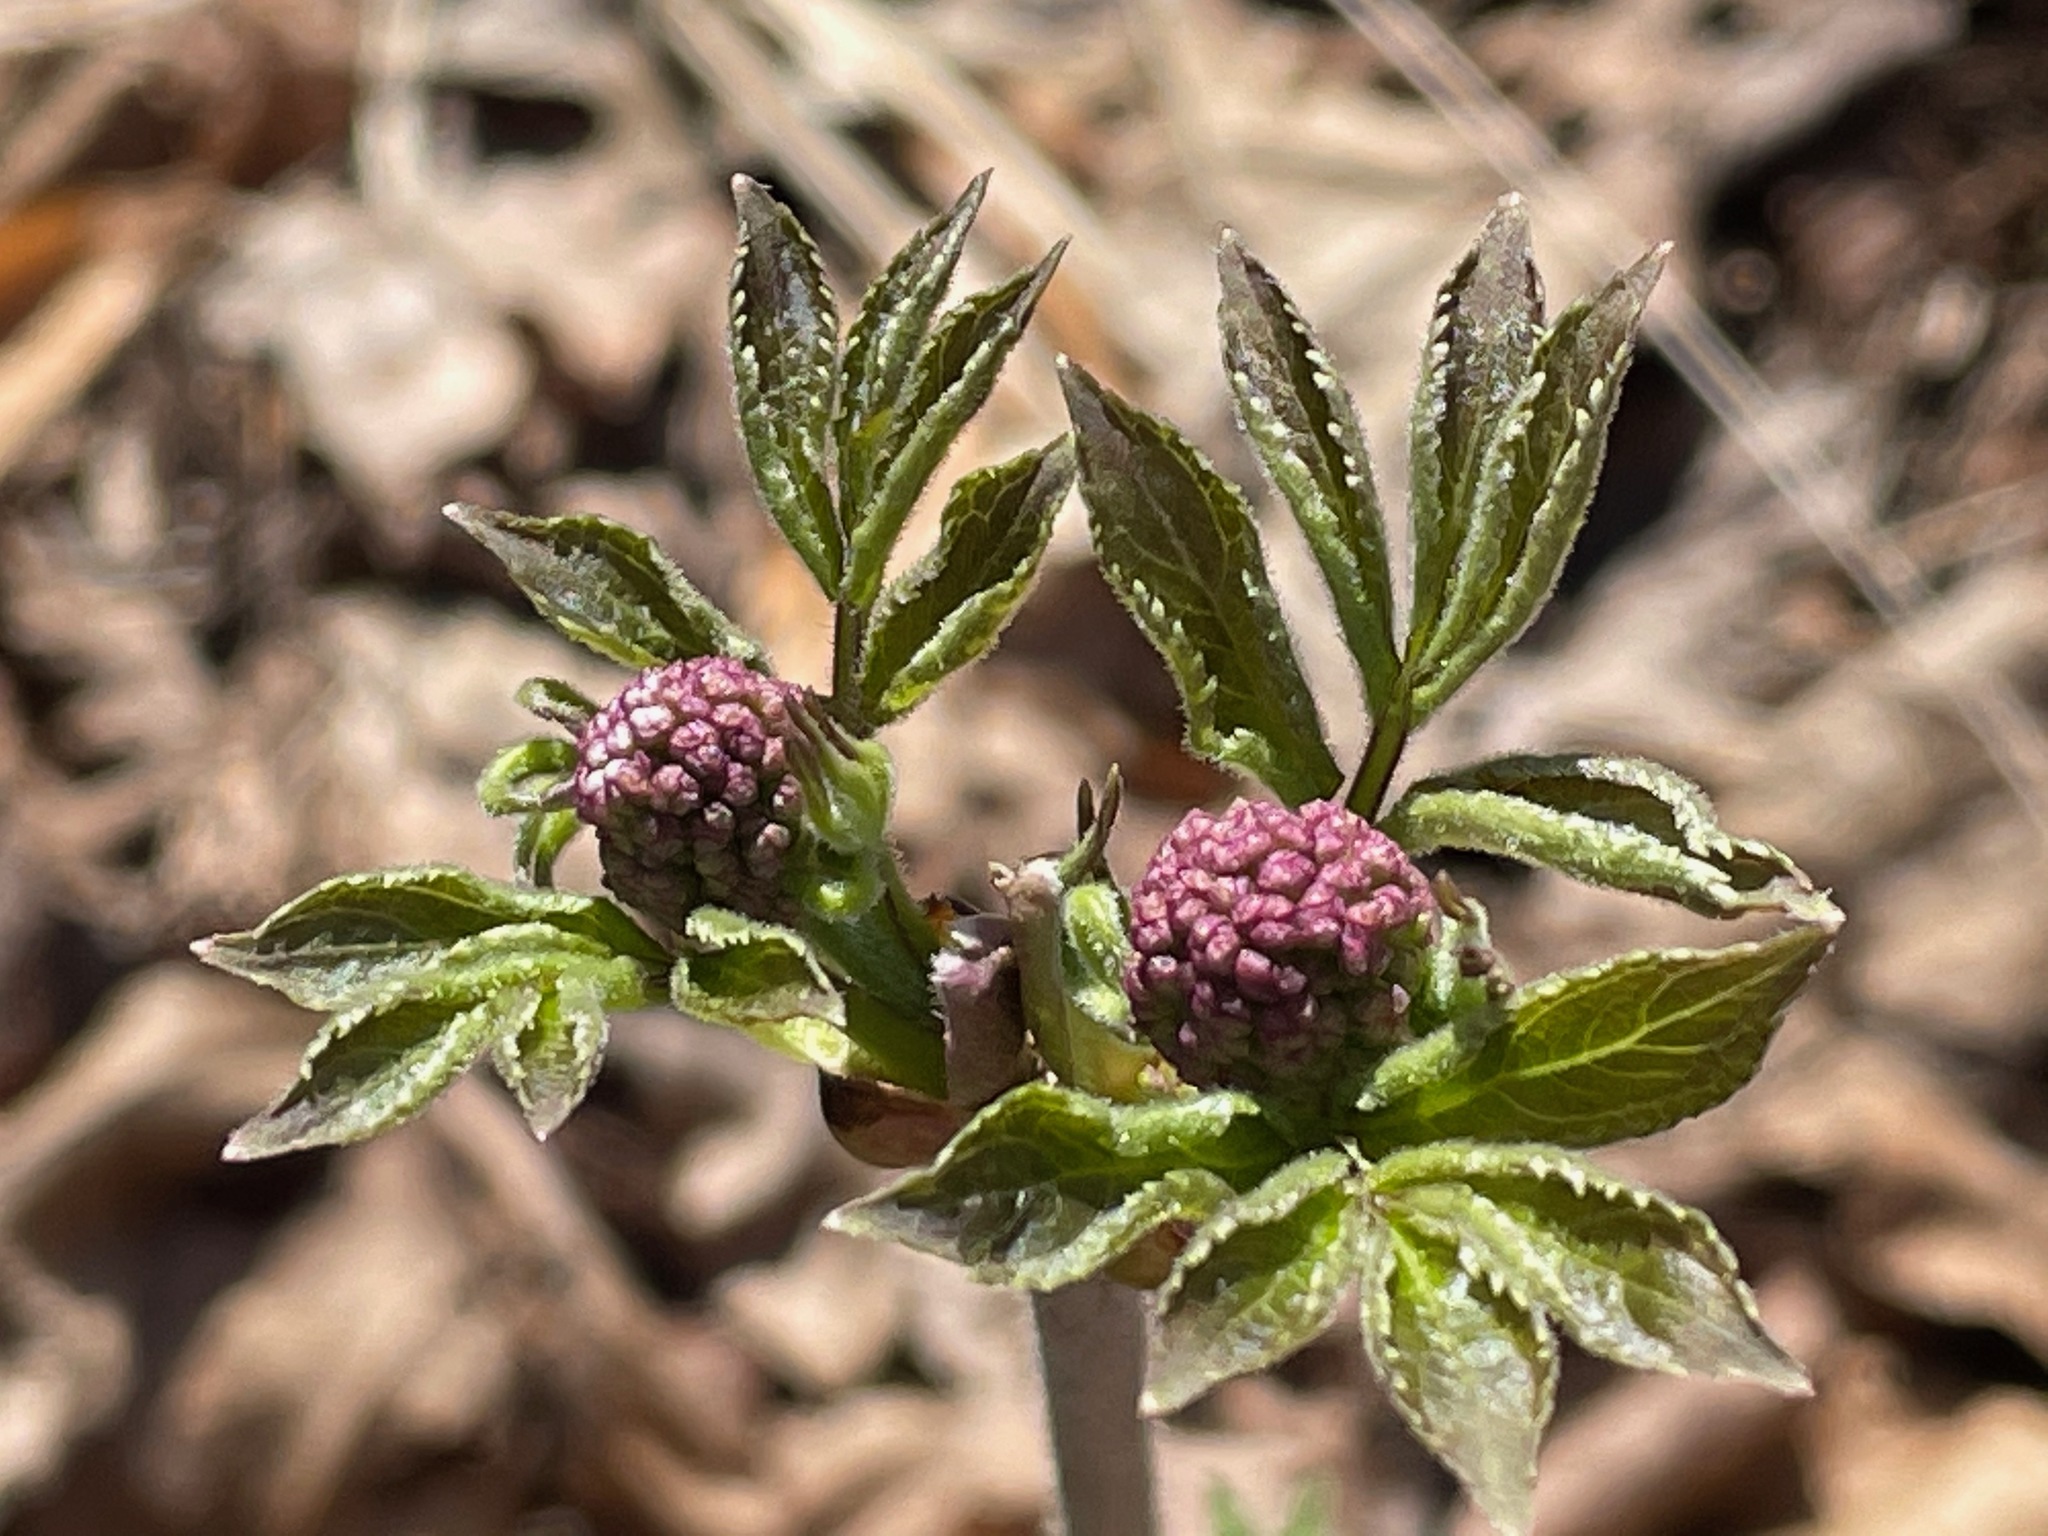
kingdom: Plantae
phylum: Tracheophyta
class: Magnoliopsida
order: Dipsacales
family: Viburnaceae
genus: Sambucus
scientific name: Sambucus racemosa
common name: Red-berried elder
